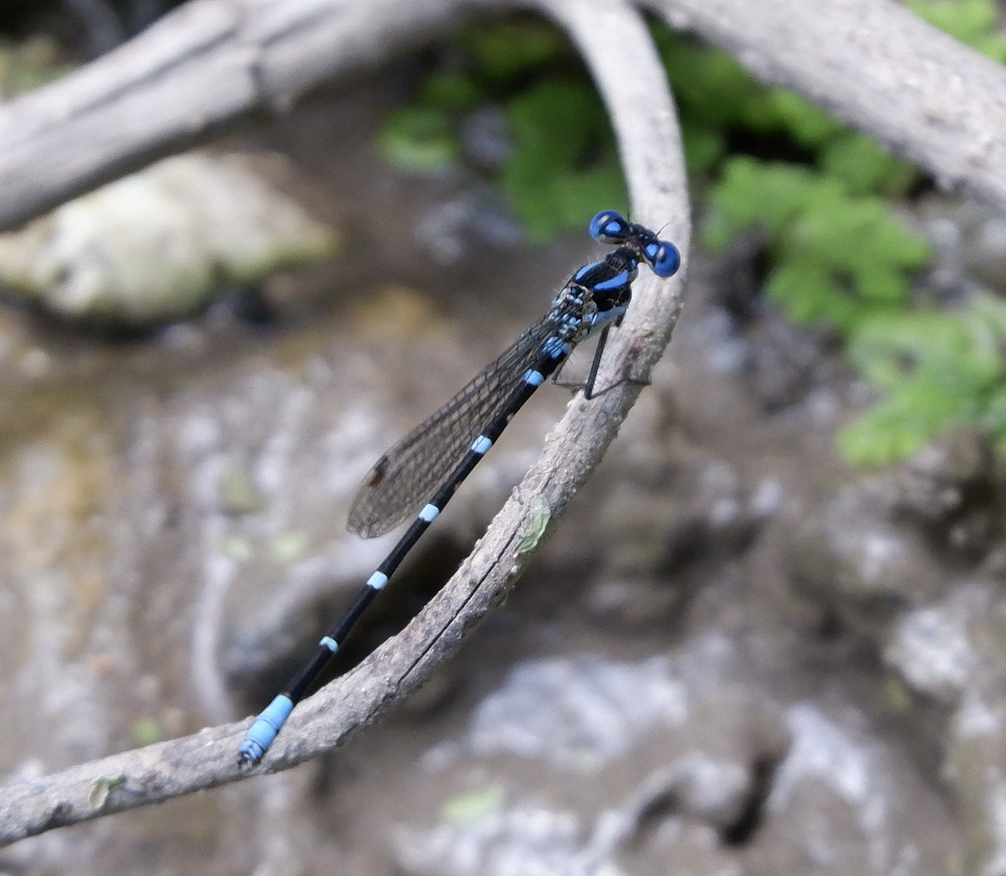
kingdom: Animalia
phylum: Arthropoda
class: Insecta
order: Odonata
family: Coenagrionidae
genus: Argia
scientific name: Argia sedula
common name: Blue-ringed dancer
